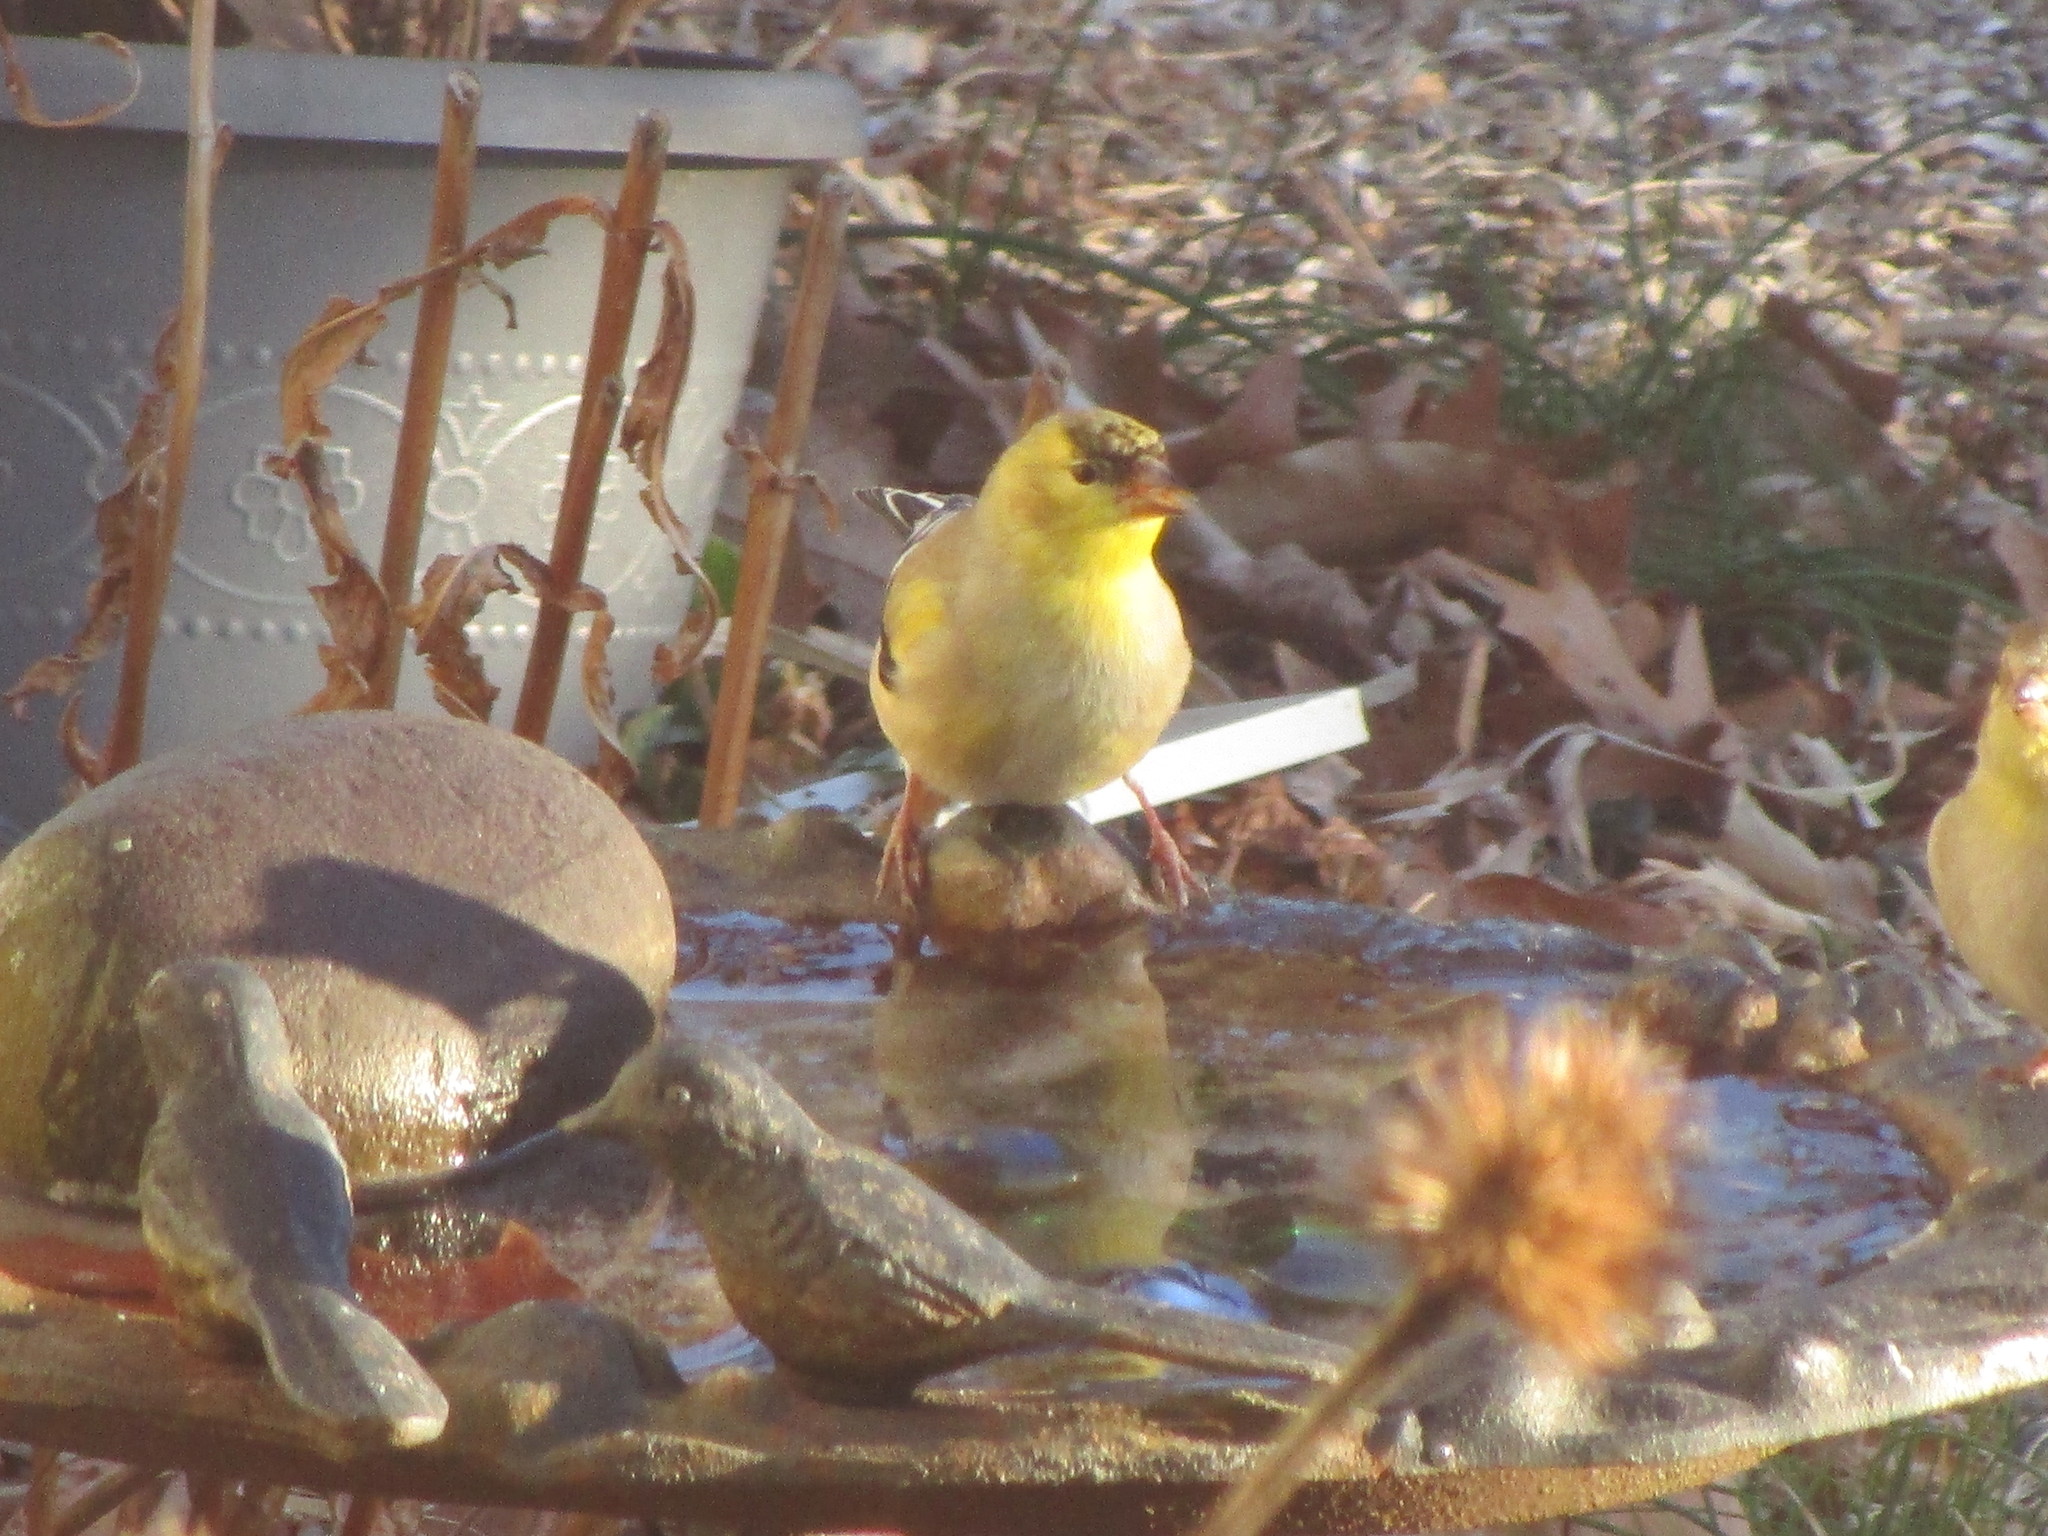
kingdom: Animalia
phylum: Chordata
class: Aves
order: Passeriformes
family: Fringillidae
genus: Spinus
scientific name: Spinus tristis
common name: American goldfinch
